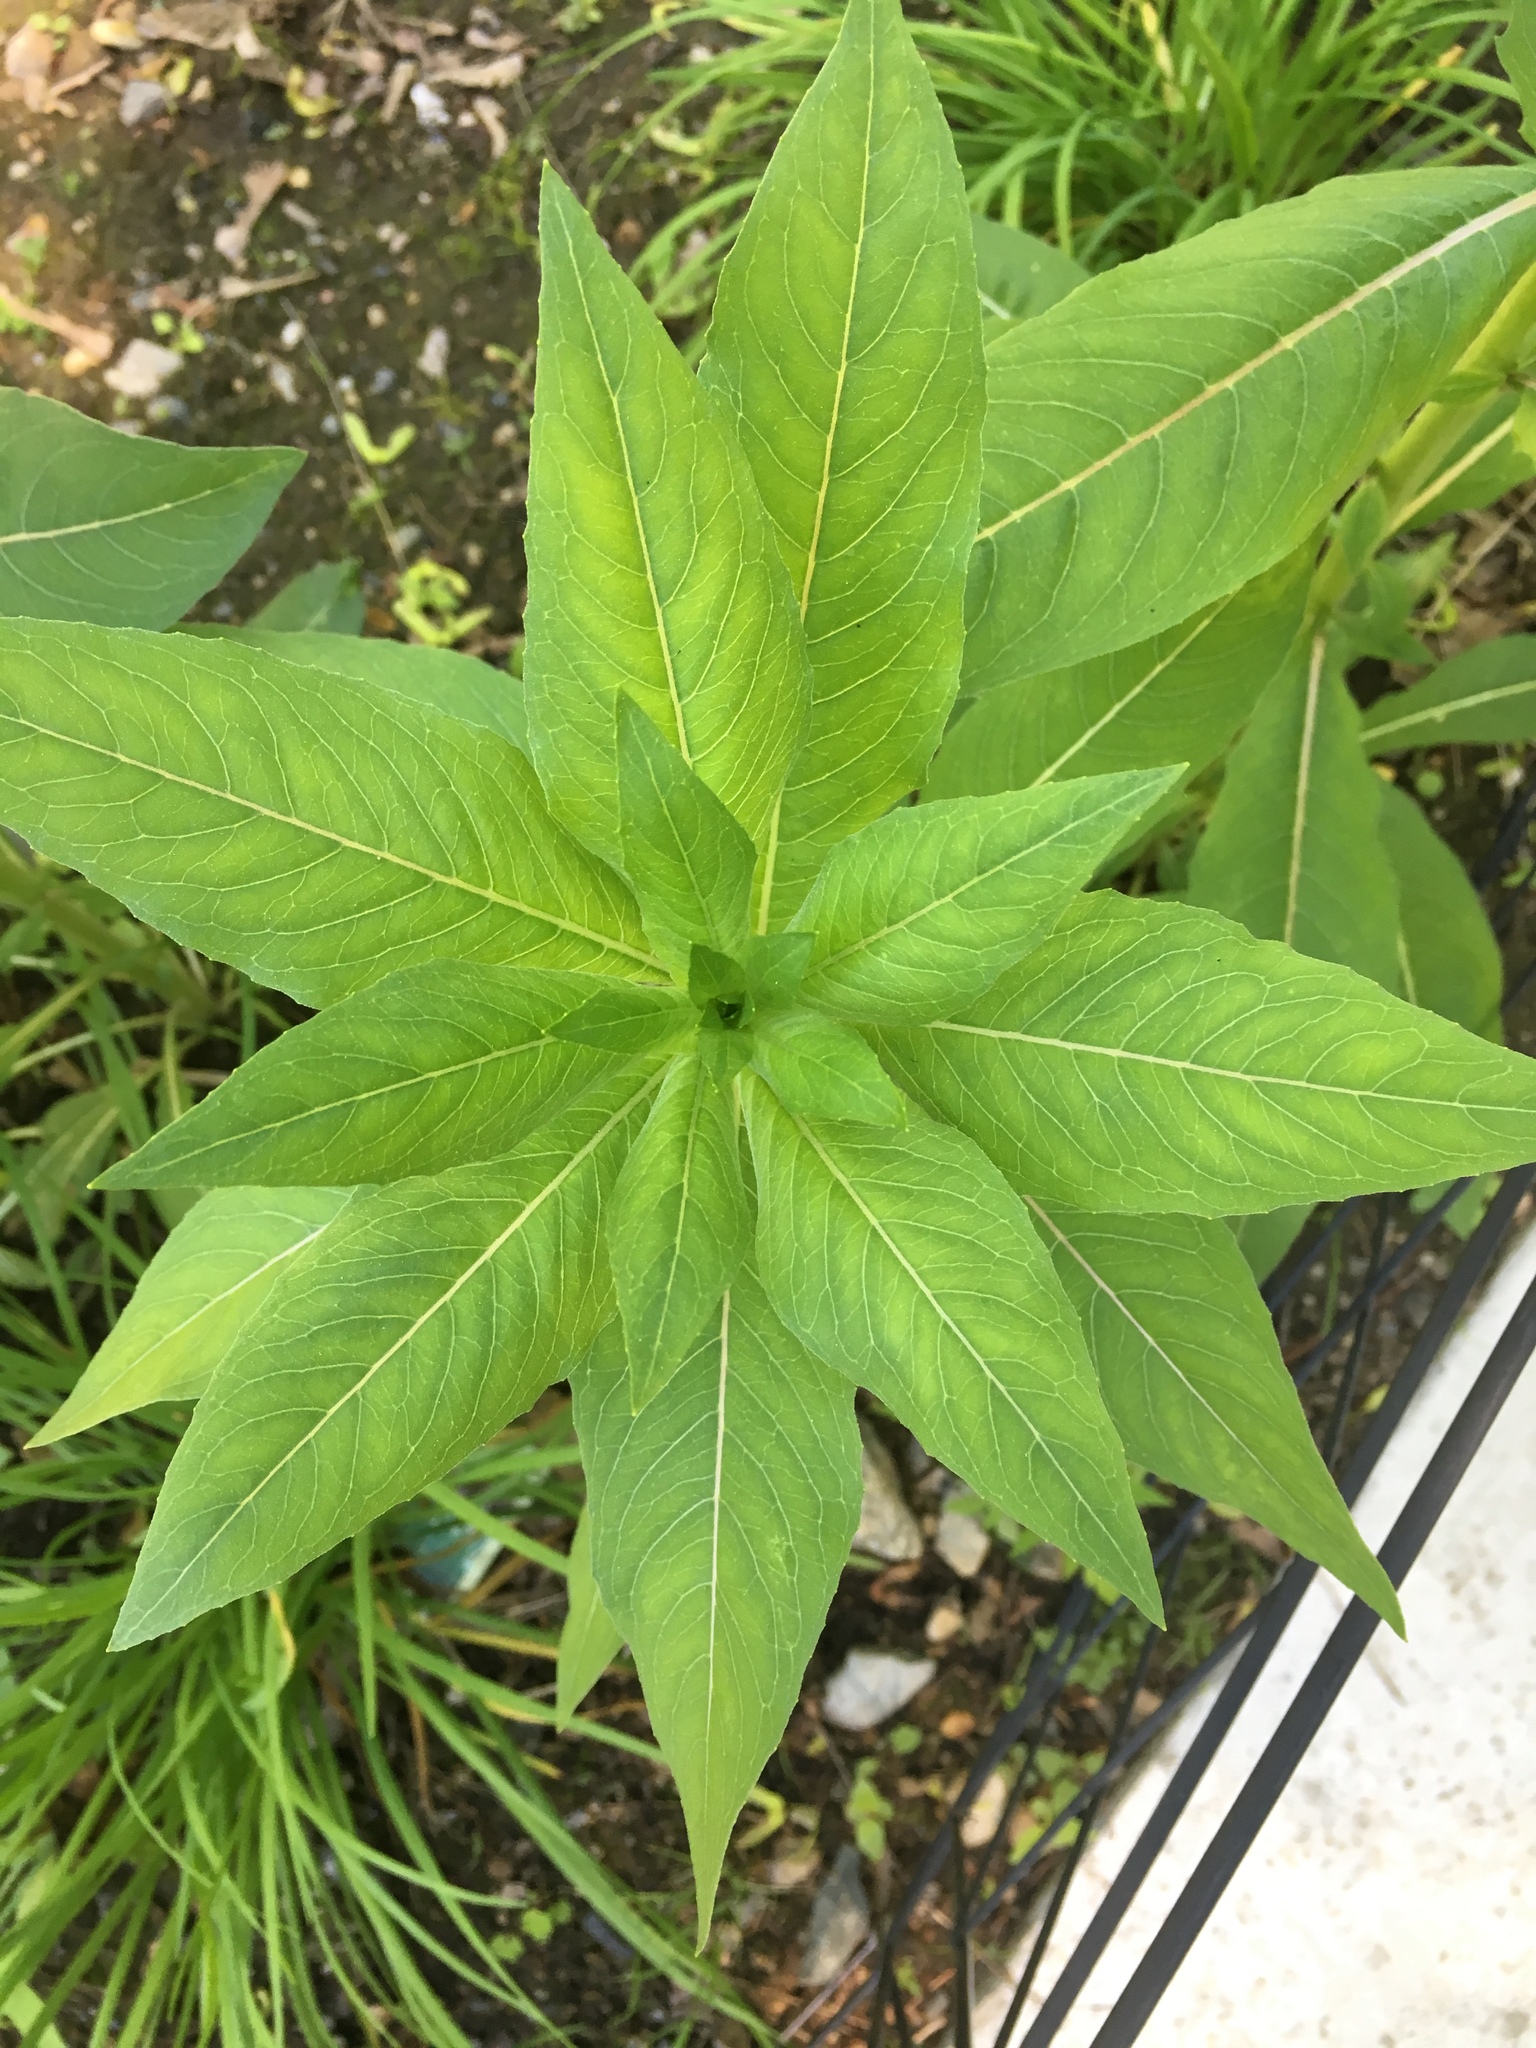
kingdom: Plantae
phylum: Tracheophyta
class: Magnoliopsida
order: Myrtales
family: Onagraceae
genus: Oenothera
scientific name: Oenothera biennis
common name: Common evening-primrose
